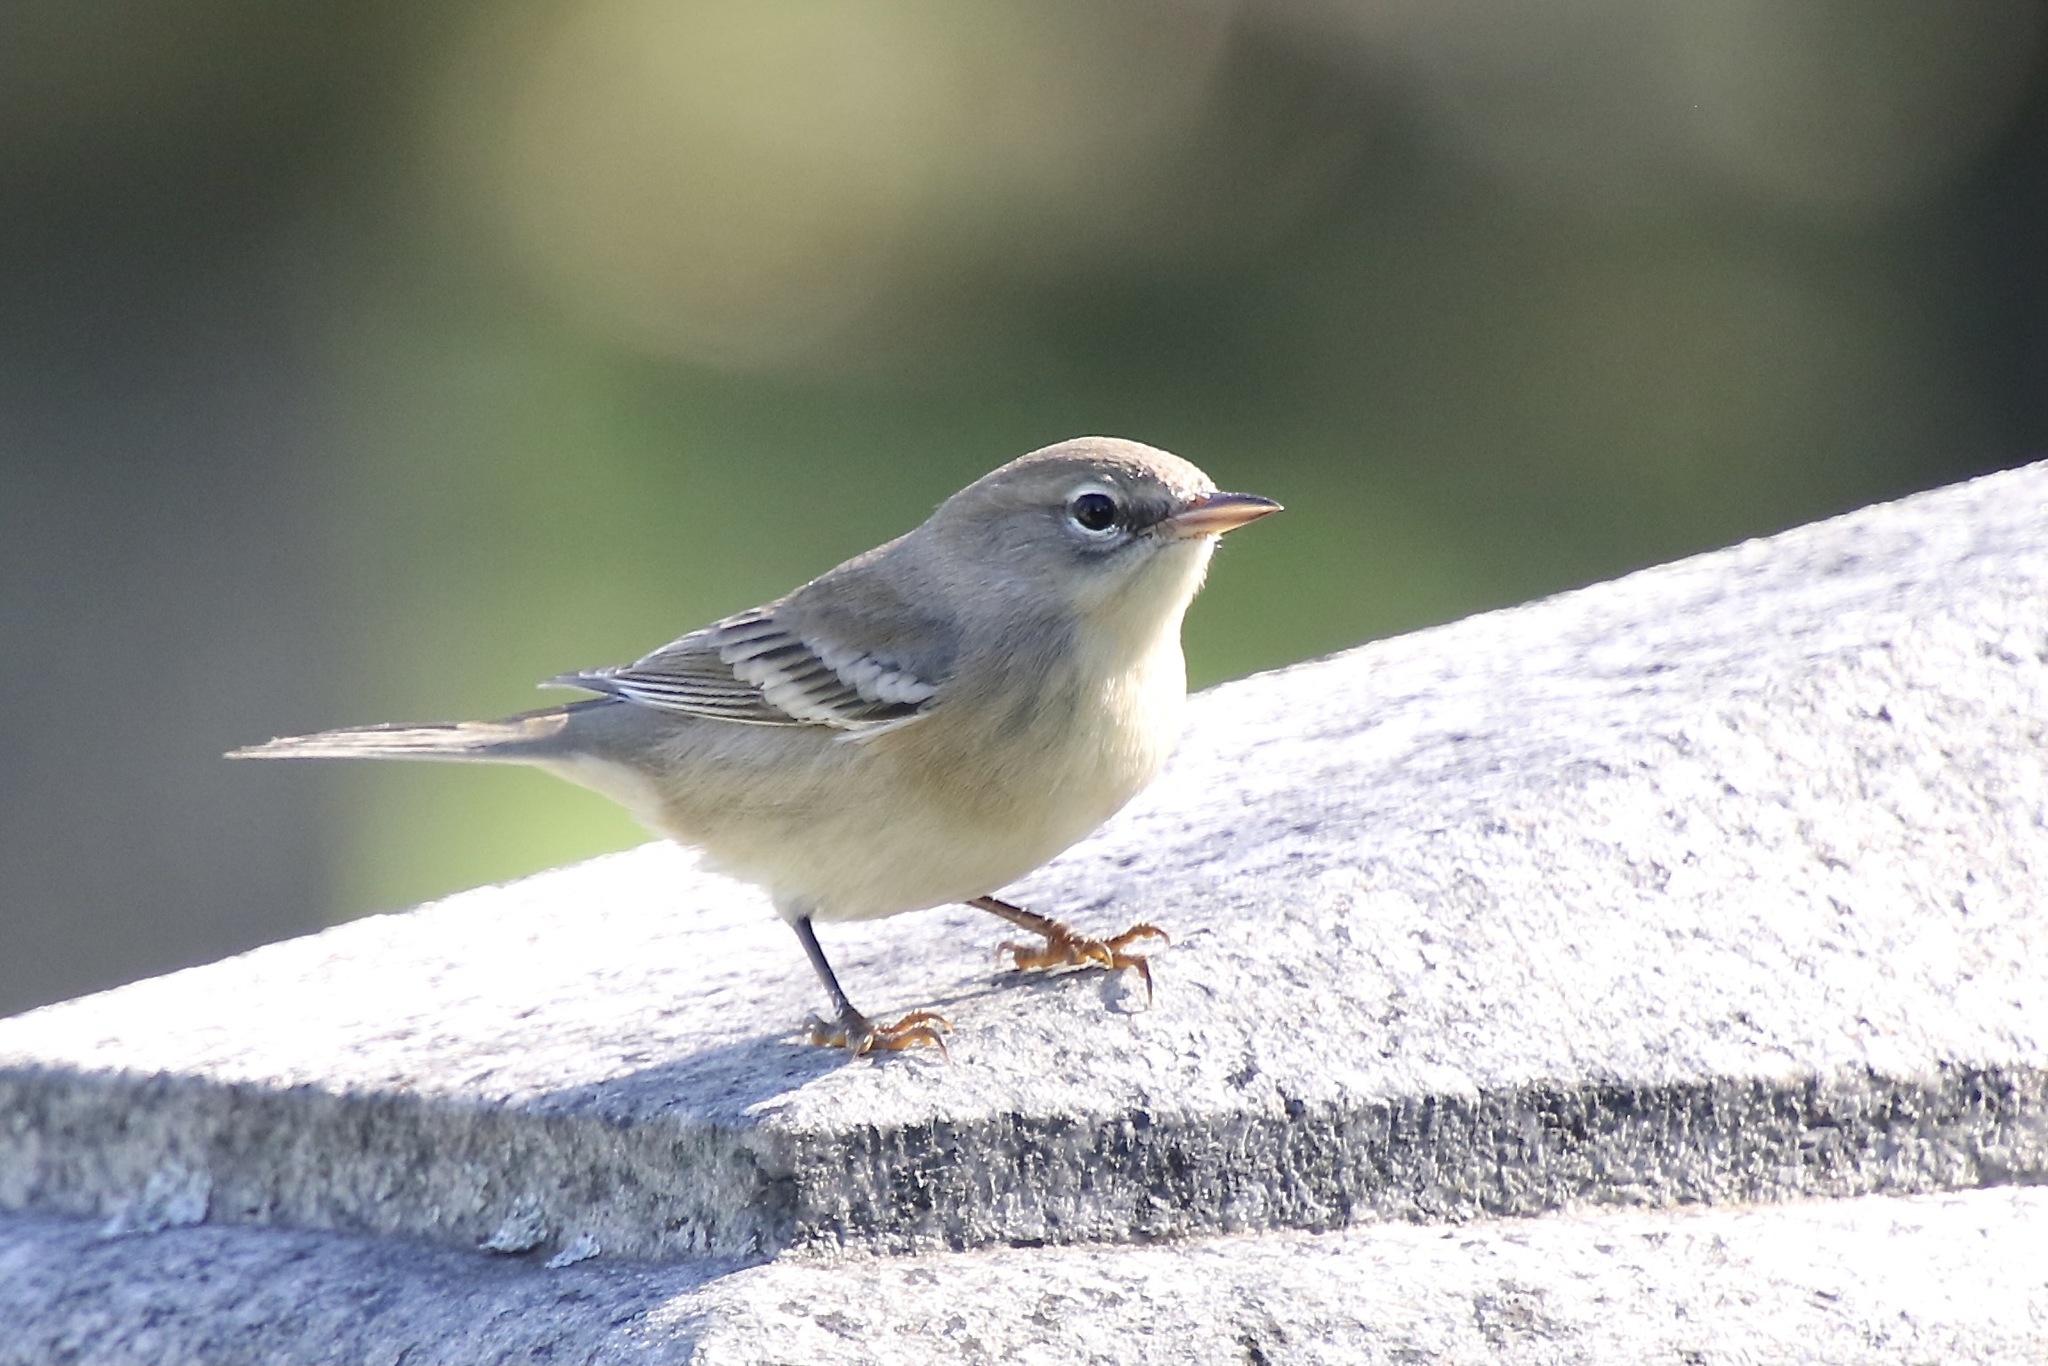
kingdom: Animalia
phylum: Chordata
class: Aves
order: Passeriformes
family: Parulidae
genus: Setophaga
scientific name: Setophaga pinus
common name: Pine warbler
